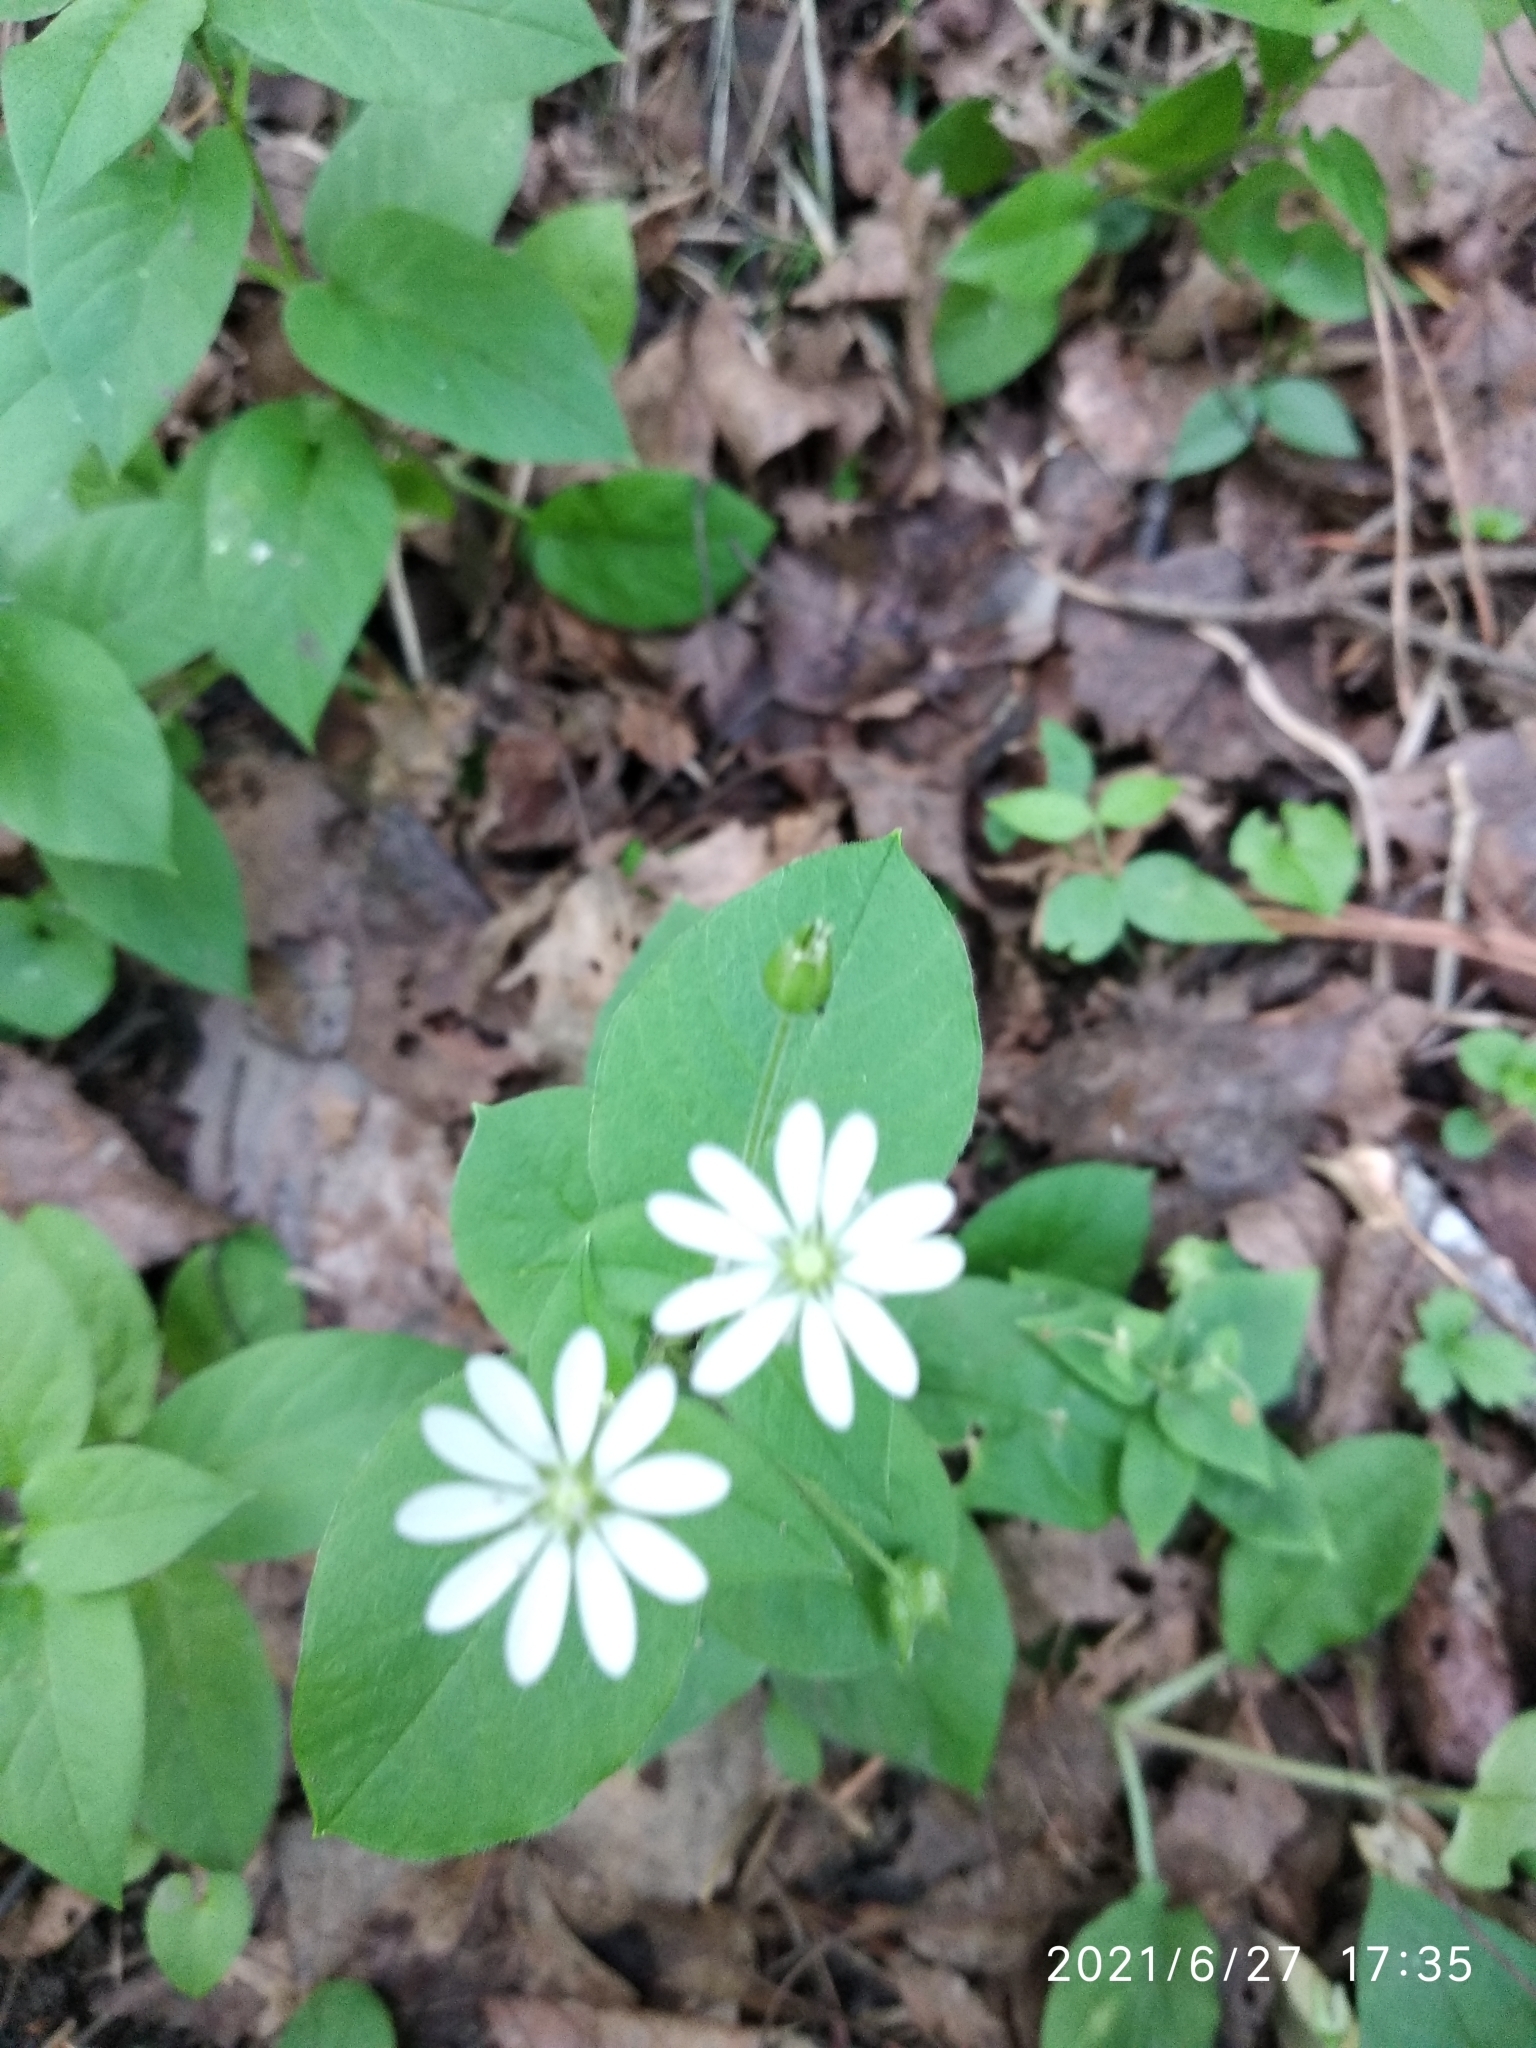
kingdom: Plantae
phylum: Tracheophyta
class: Magnoliopsida
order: Caryophyllales
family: Caryophyllaceae
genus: Stellaria
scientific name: Stellaria bungeana
